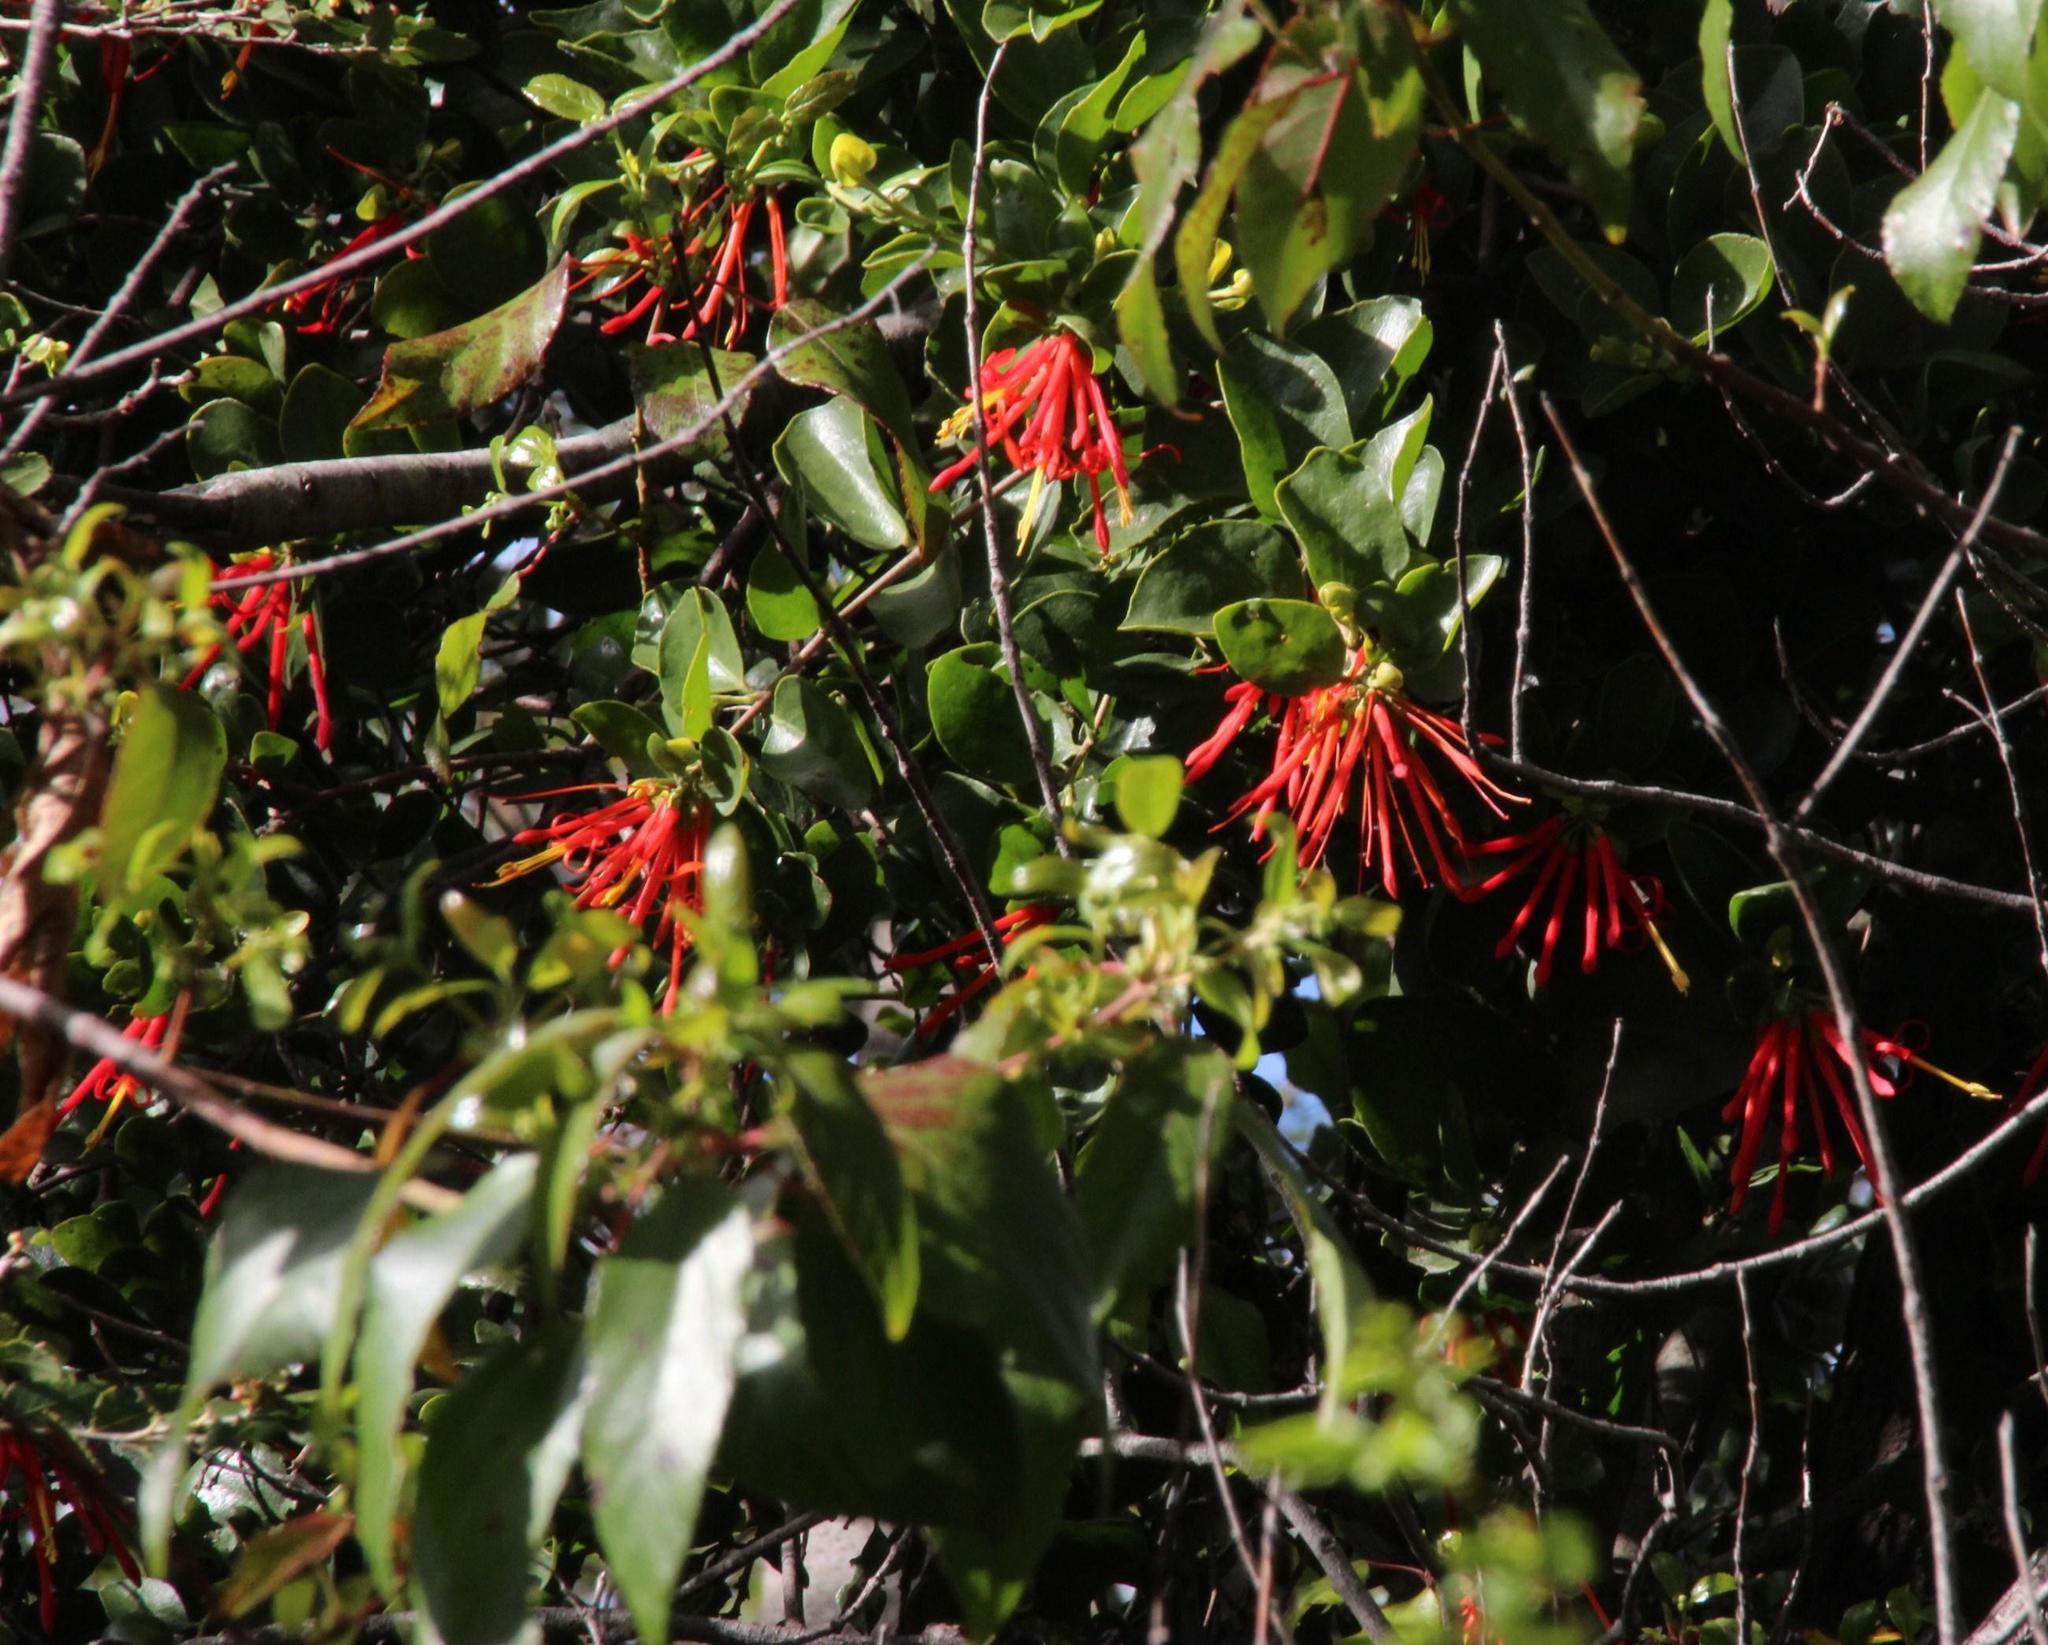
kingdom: Plantae
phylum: Tracheophyta
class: Magnoliopsida
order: Santalales
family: Loranthaceae
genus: Tristerix
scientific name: Tristerix corymbosus
